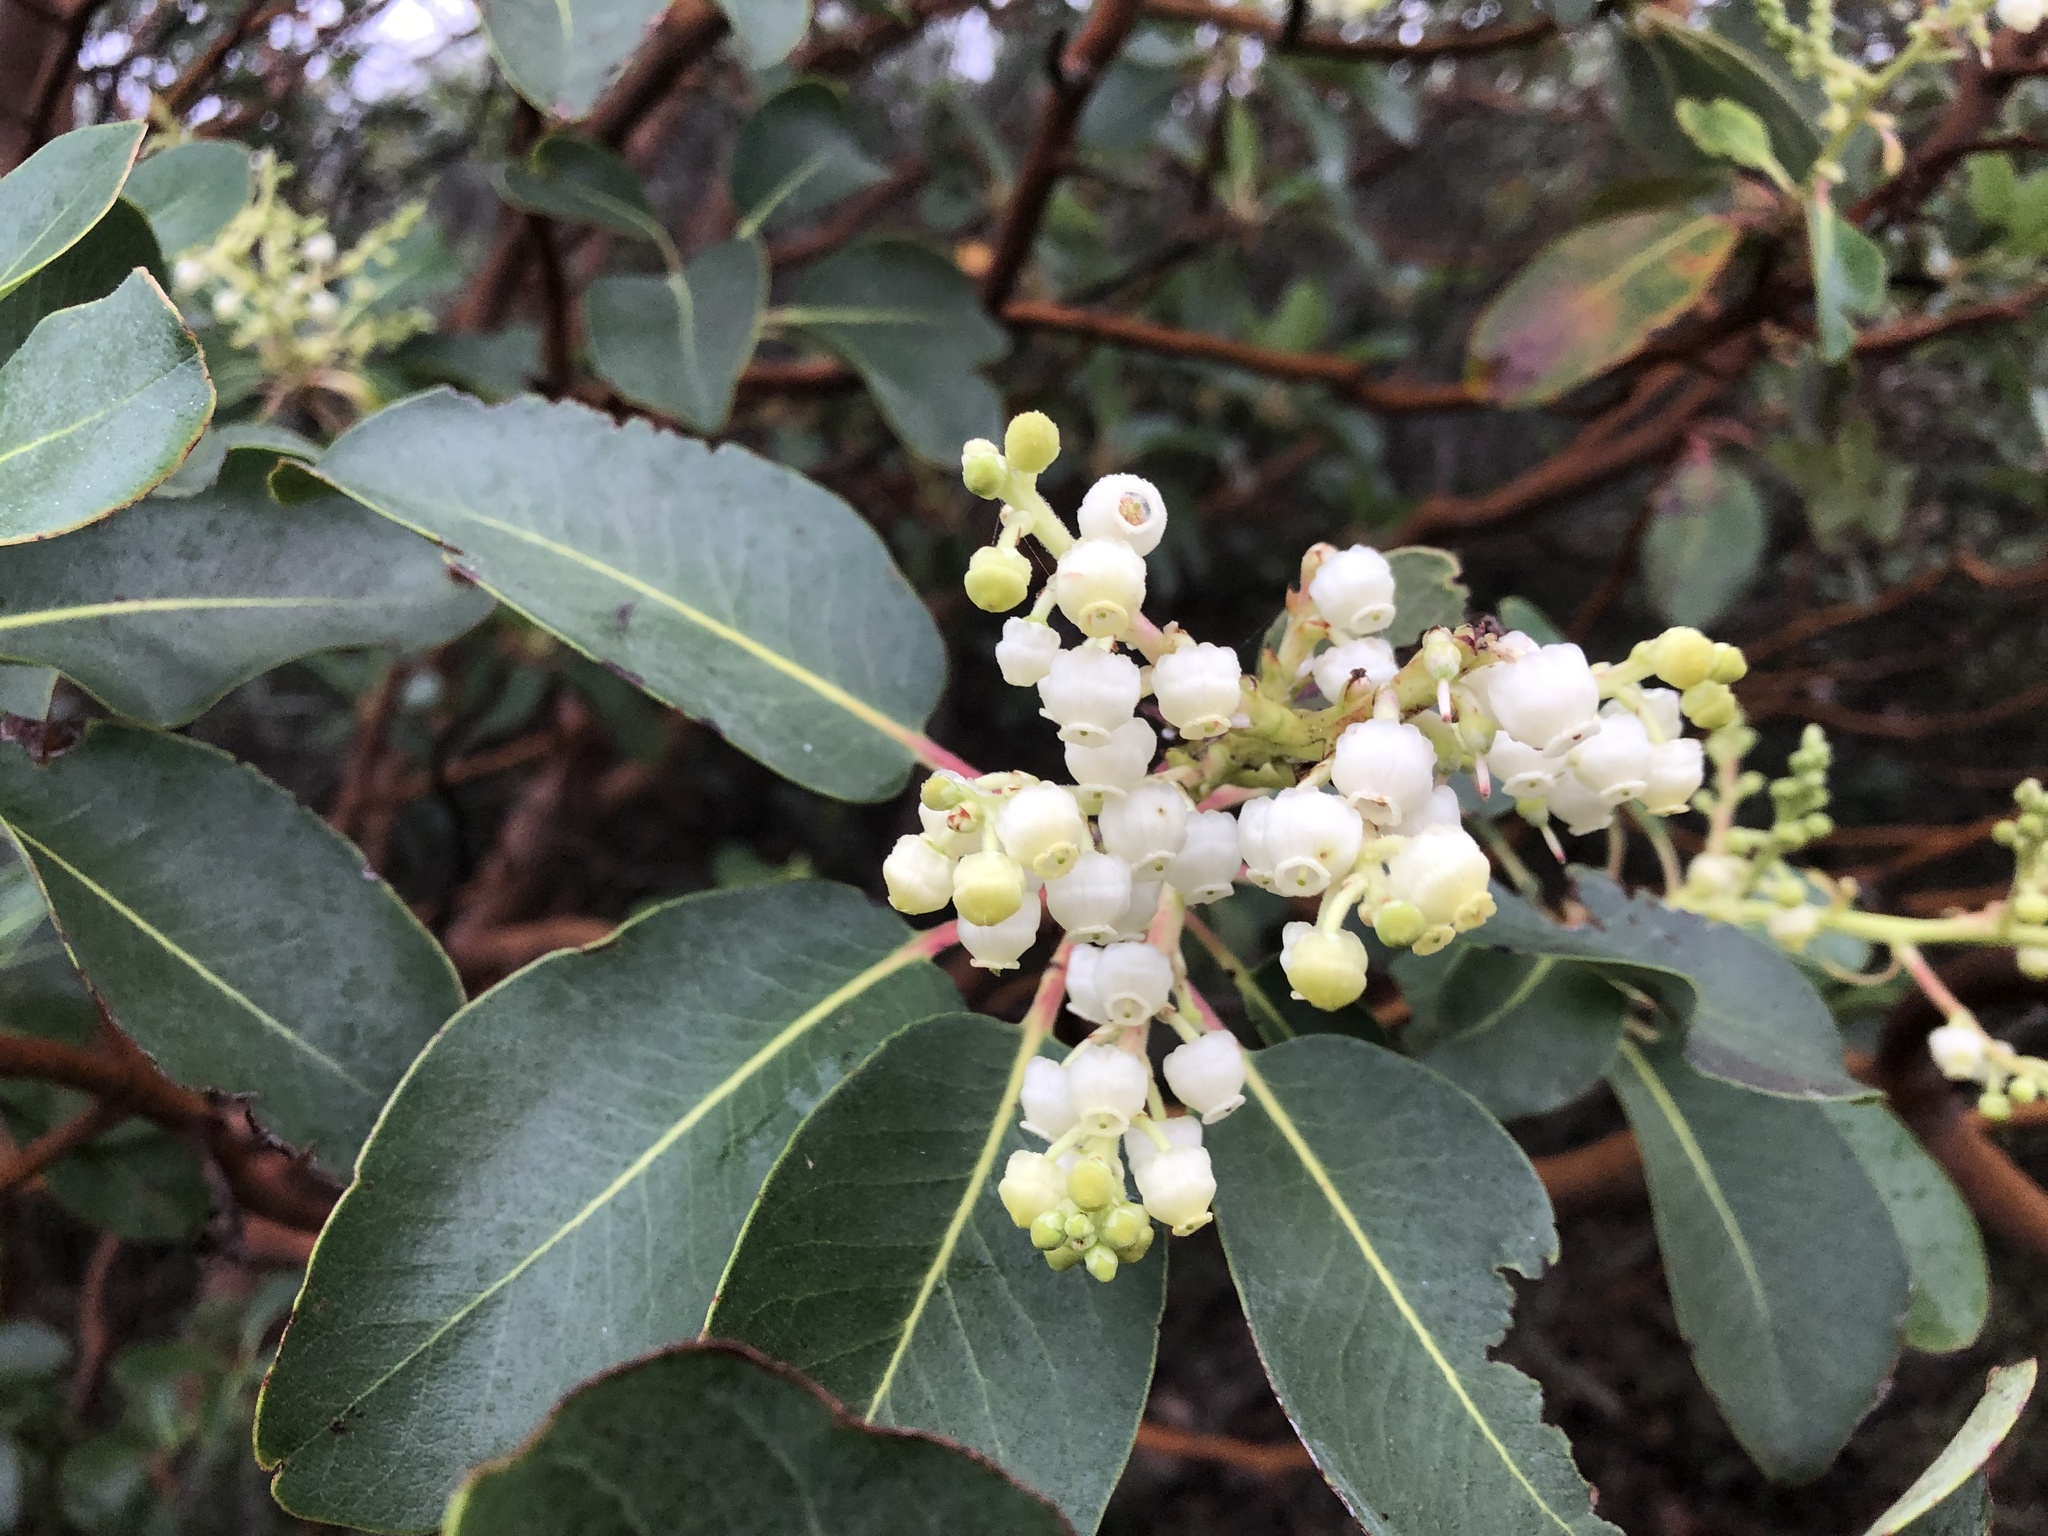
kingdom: Plantae
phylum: Tracheophyta
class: Magnoliopsida
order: Ericales
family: Ericaceae
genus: Arbutus
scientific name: Arbutus menziesii
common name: Pacific madrone
